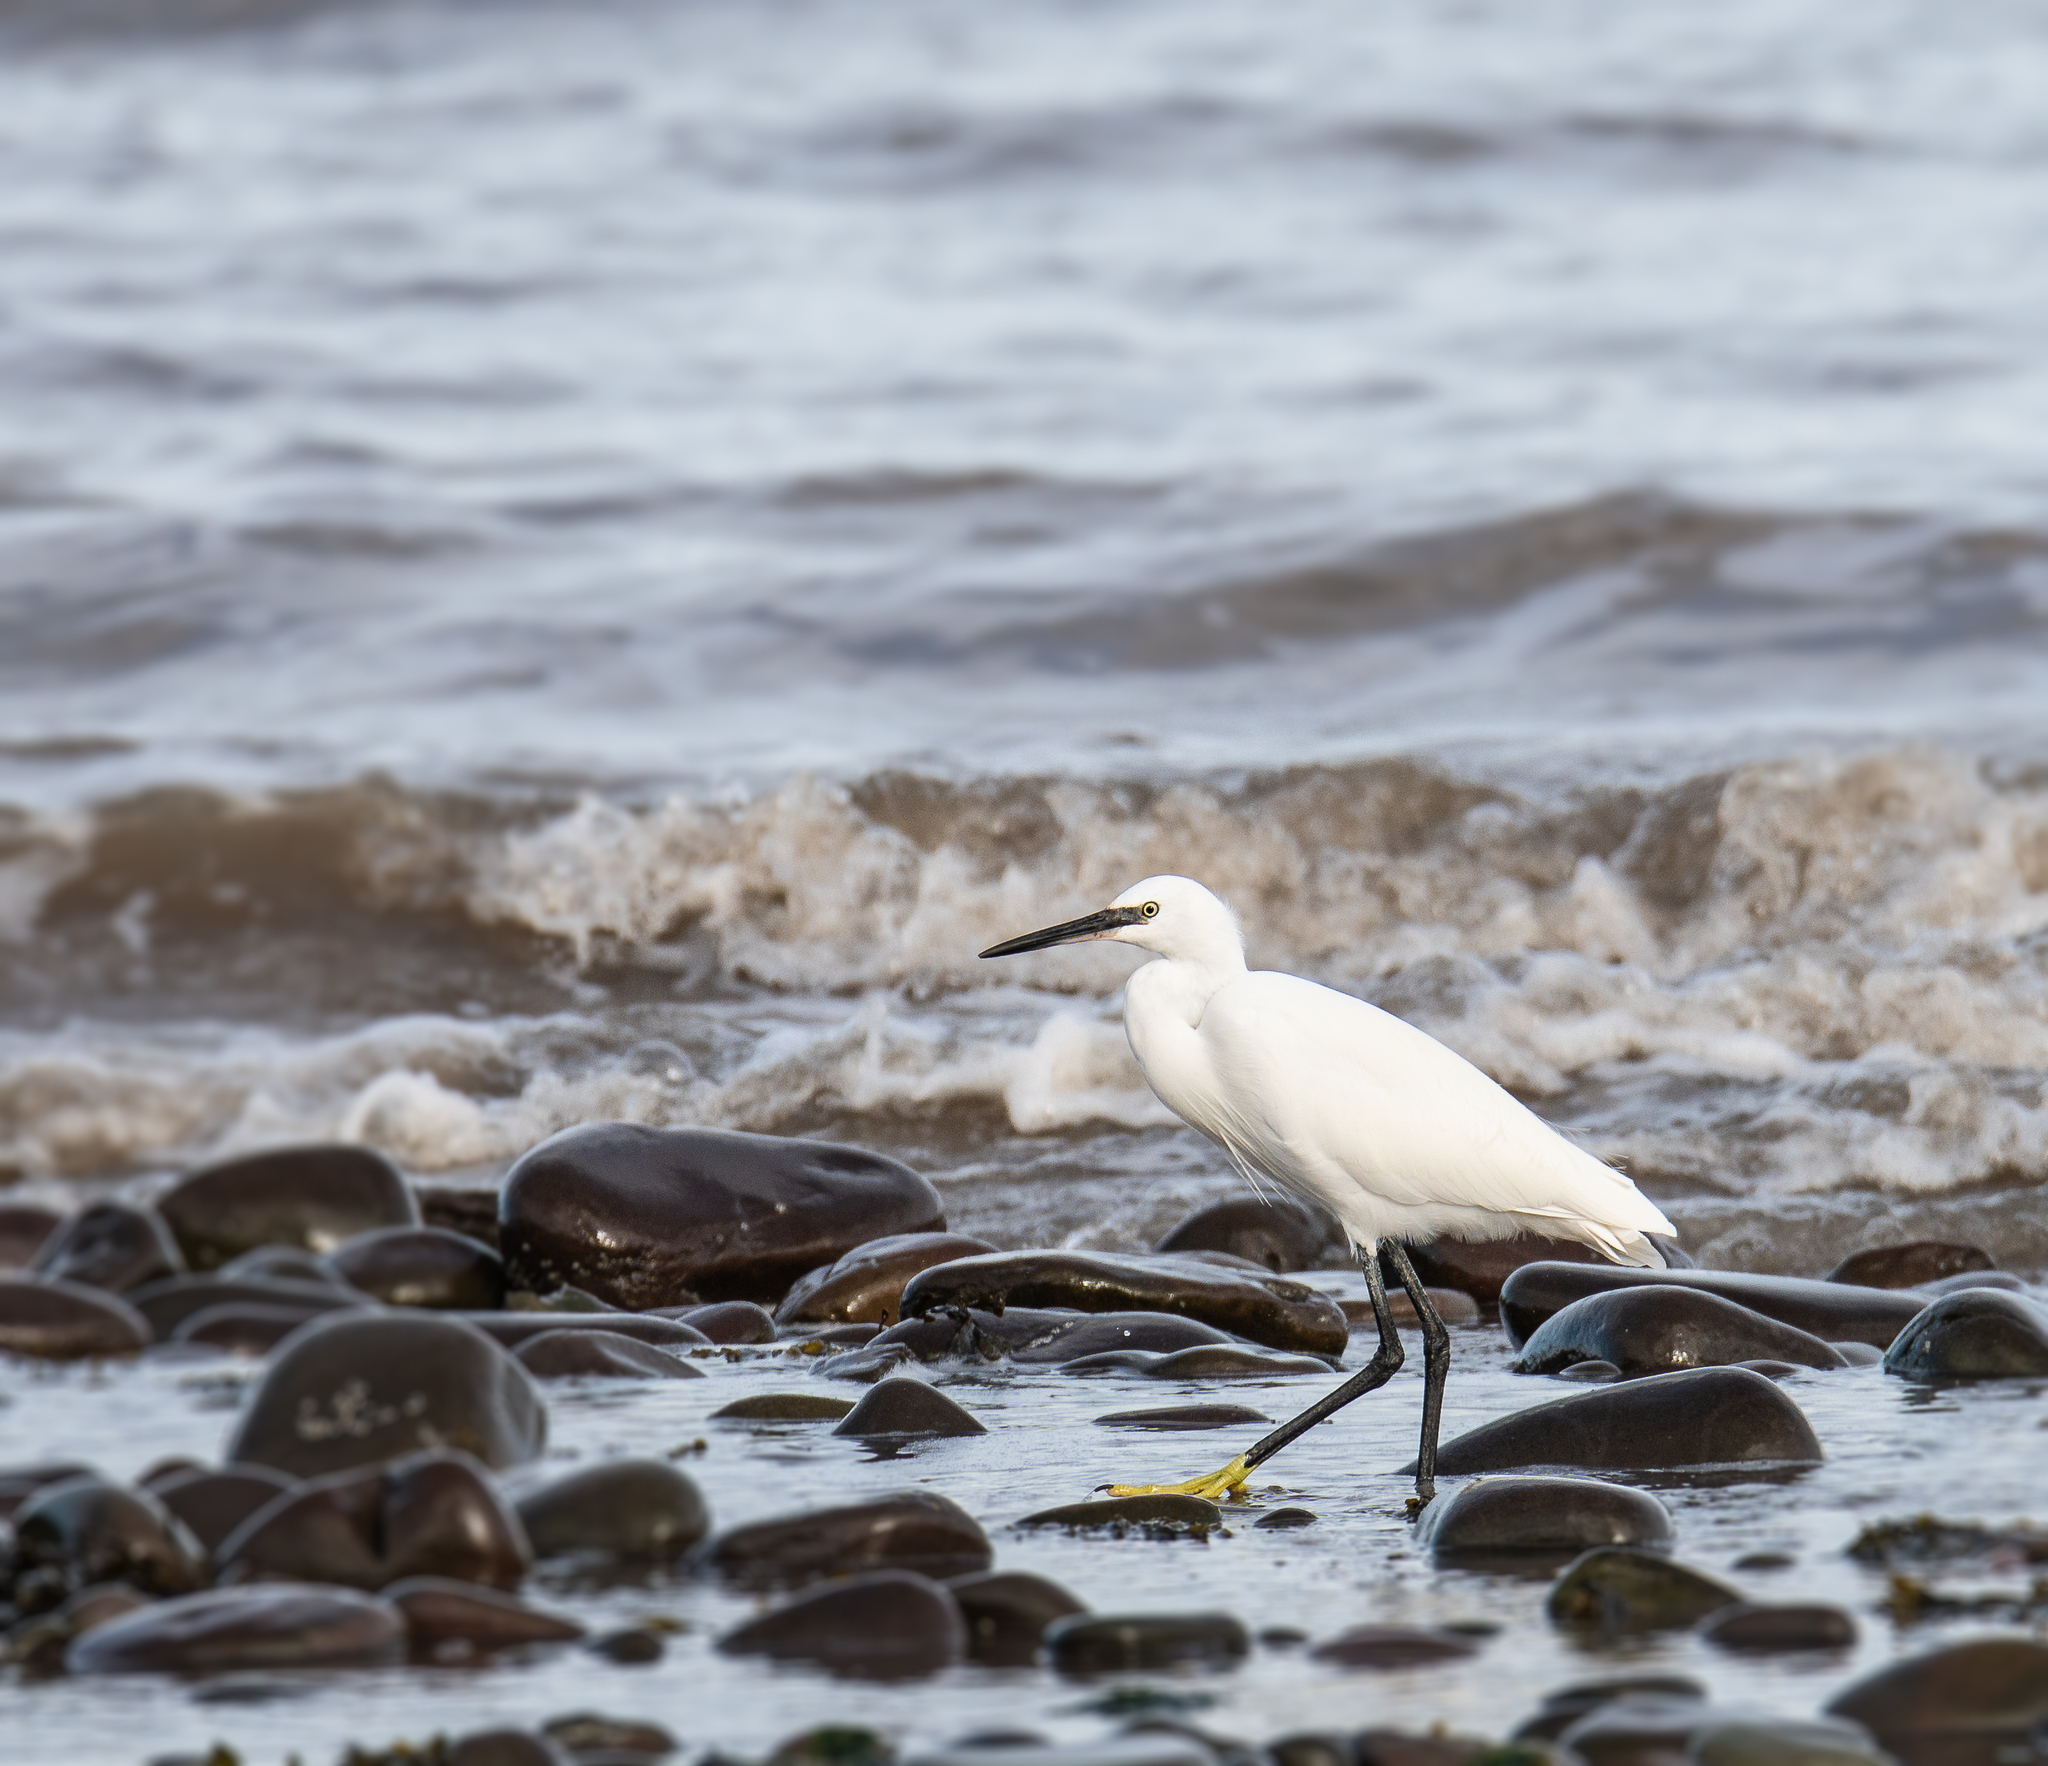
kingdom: Animalia
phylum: Chordata
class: Aves
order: Pelecaniformes
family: Ardeidae
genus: Egretta
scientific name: Egretta garzetta
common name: Little egret
